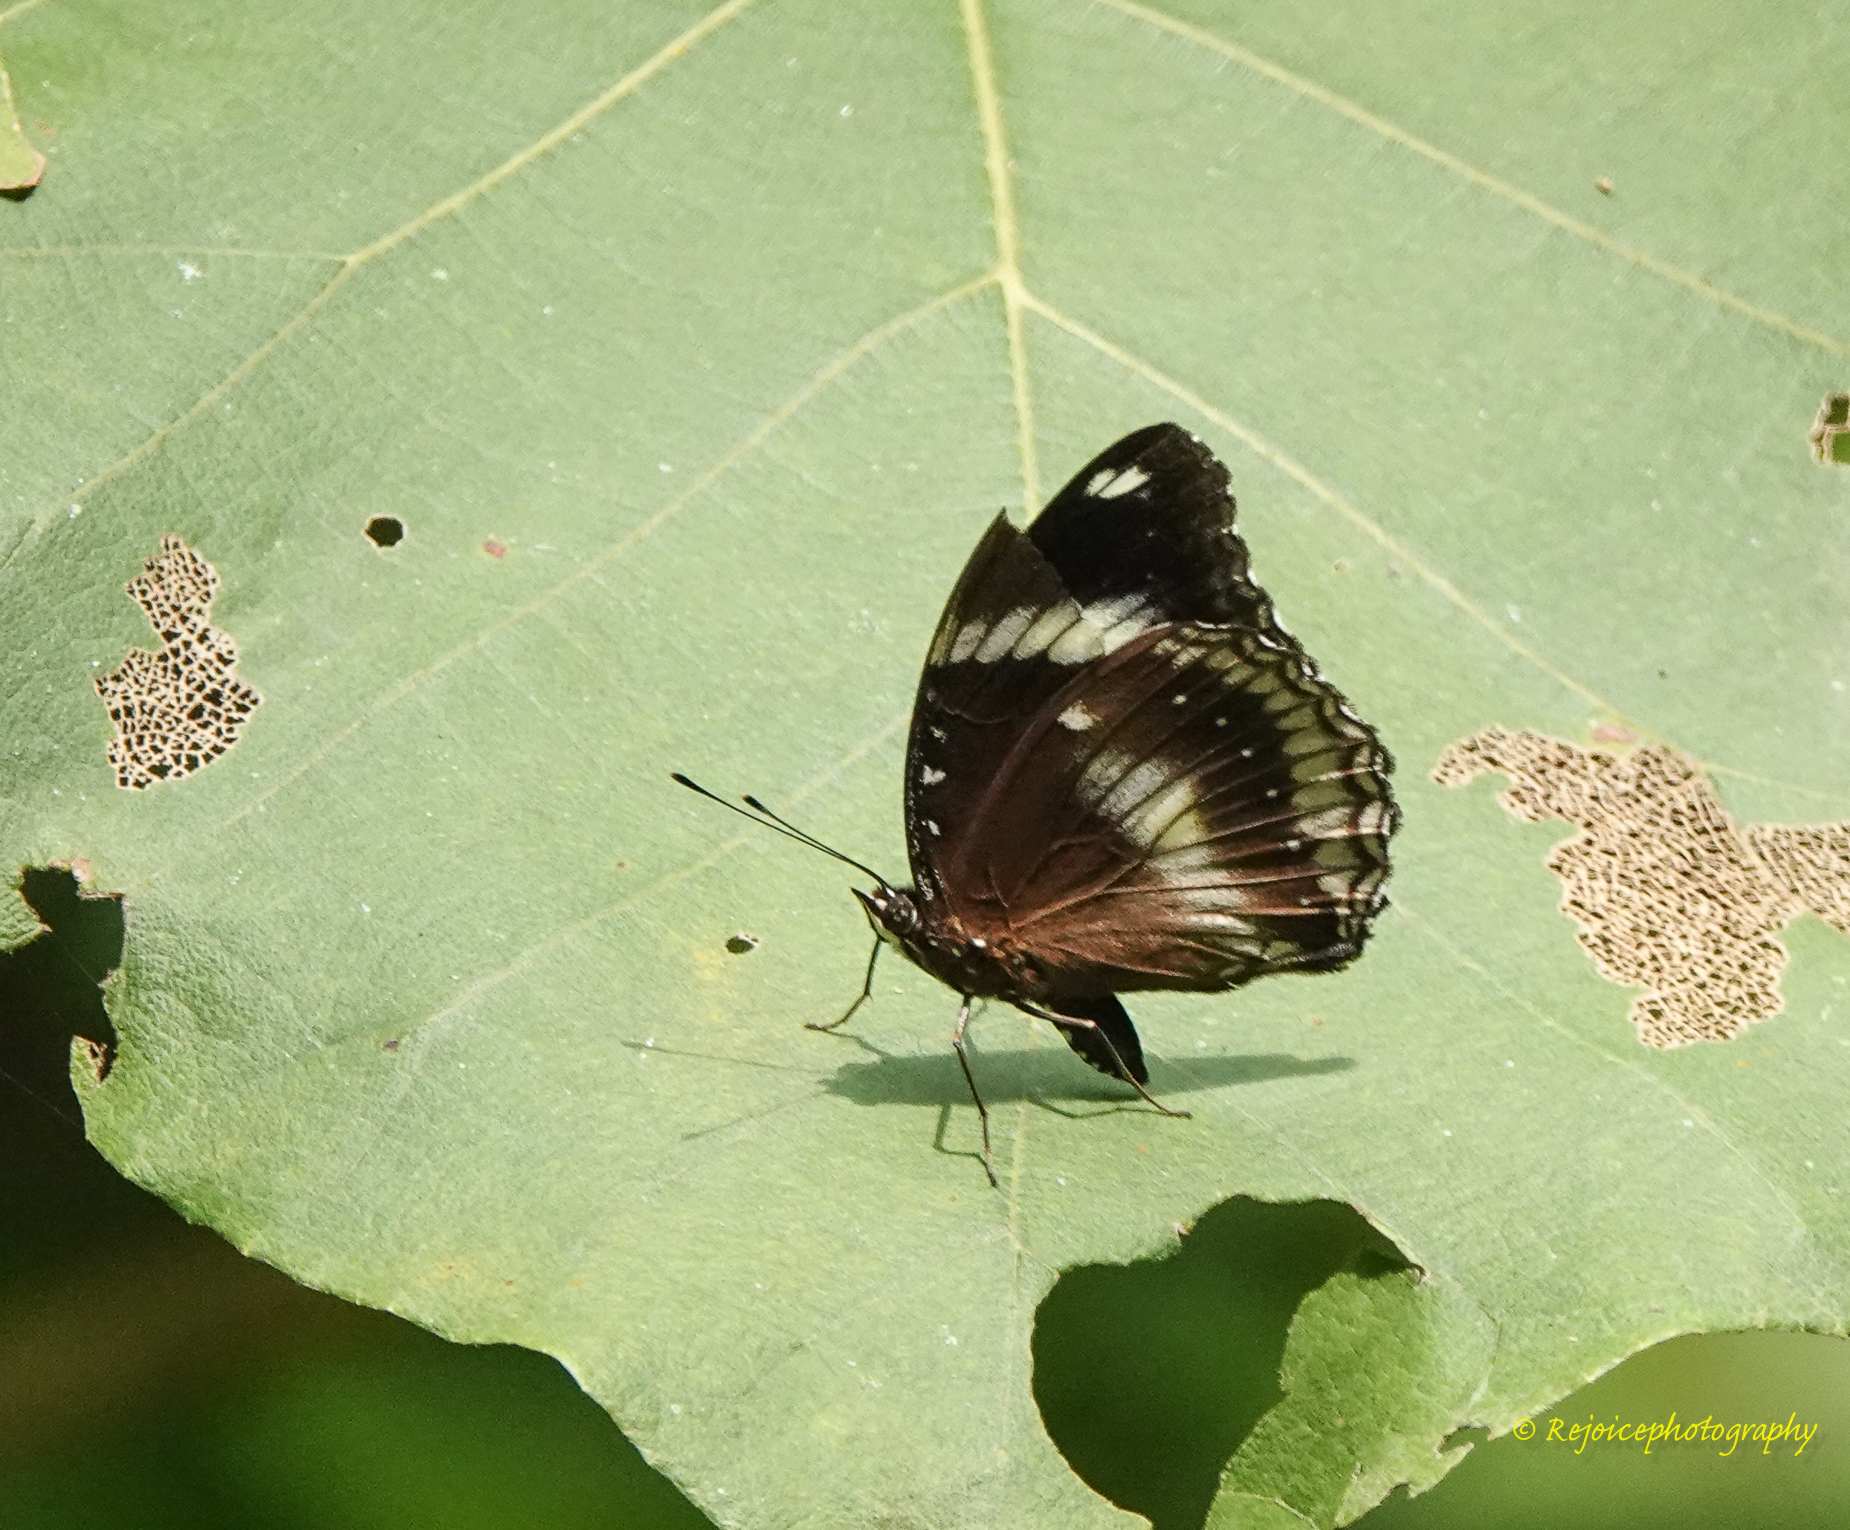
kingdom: Animalia
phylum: Arthropoda
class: Insecta
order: Lepidoptera
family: Nymphalidae
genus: Hypolimnas
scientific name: Hypolimnas bolina
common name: Great eggfly
